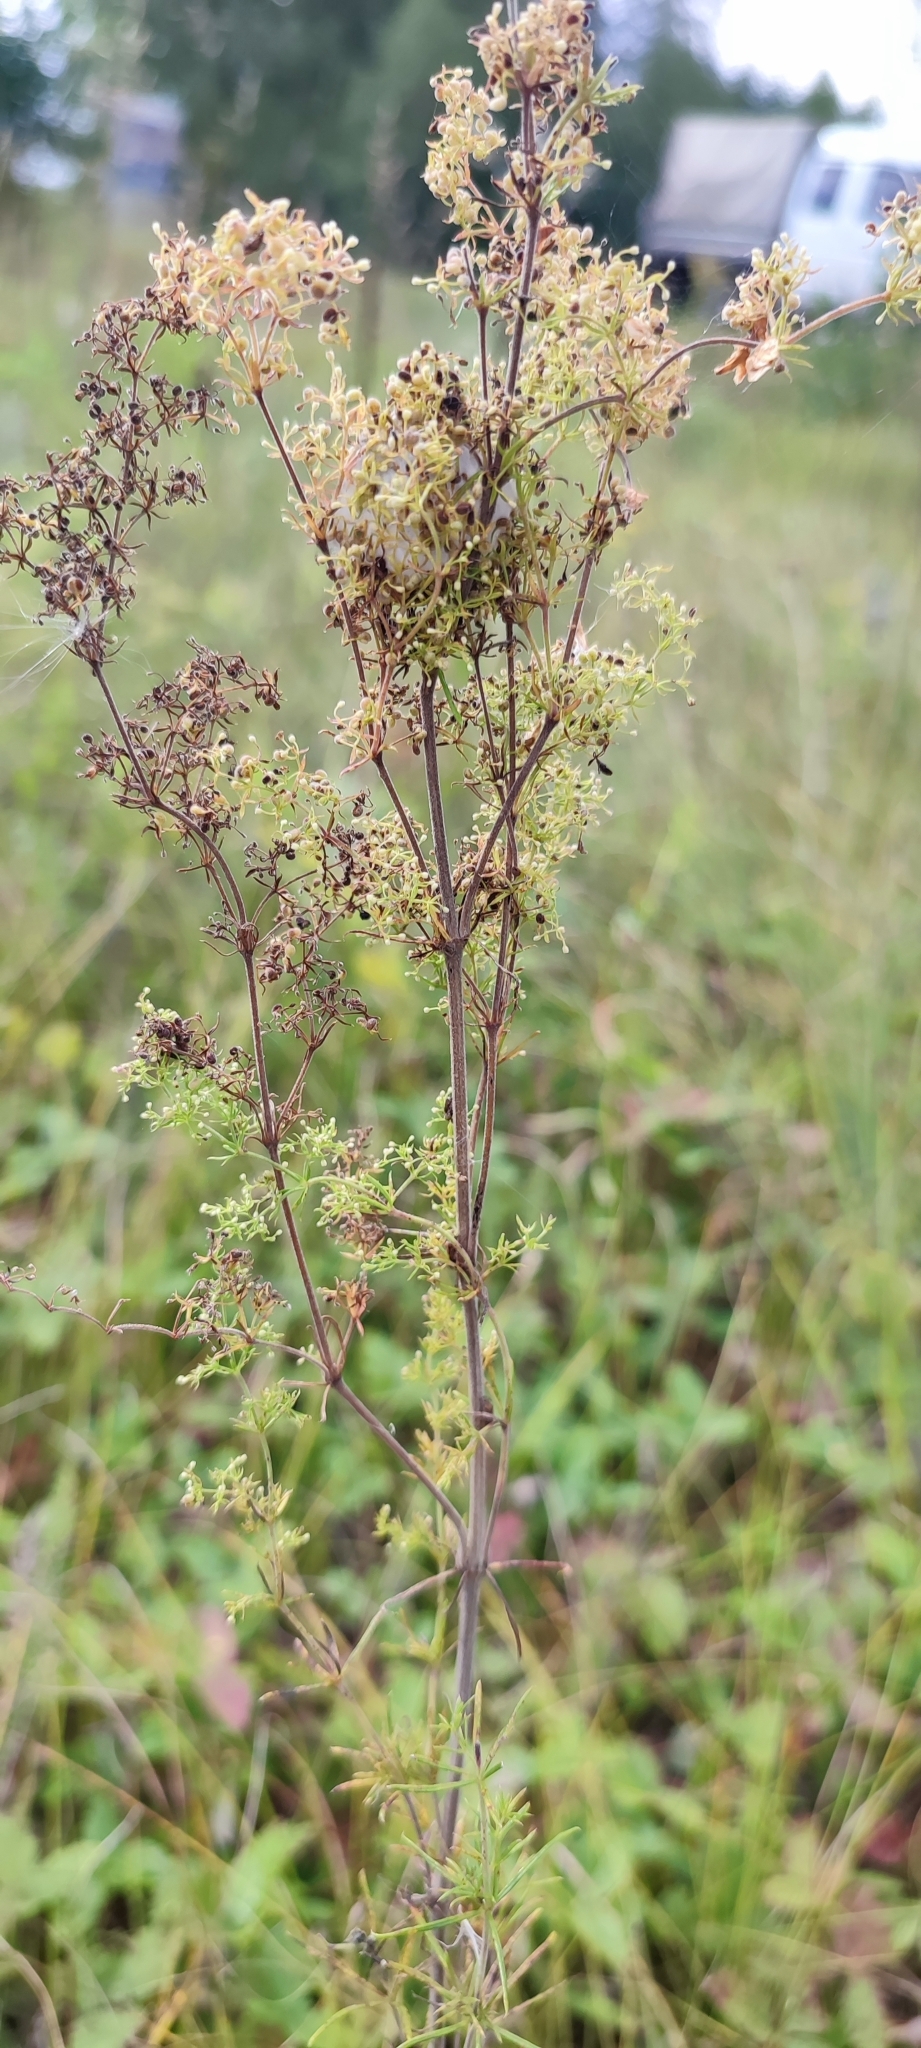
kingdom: Plantae
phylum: Tracheophyta
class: Magnoliopsida
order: Gentianales
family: Rubiaceae
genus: Galium
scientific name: Galium verum
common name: Lady's bedstraw
